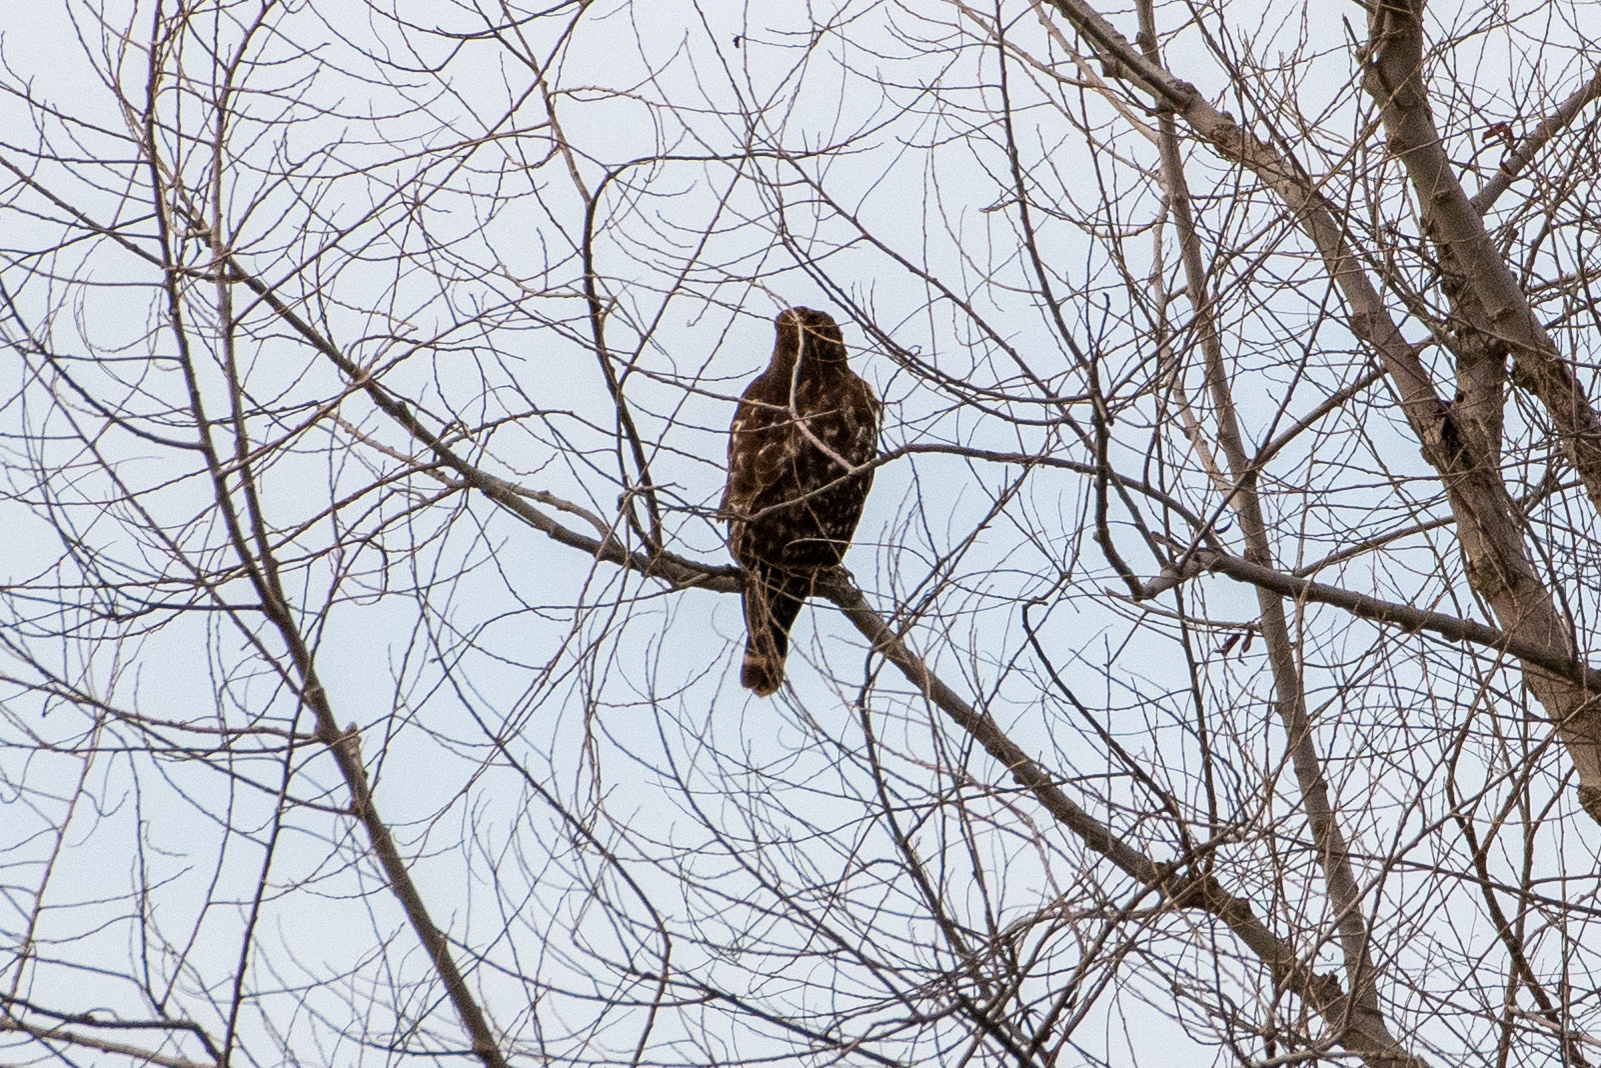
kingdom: Animalia
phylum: Chordata
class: Aves
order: Accipitriformes
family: Accipitridae
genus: Buteo
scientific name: Buteo lineatus
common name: Red-shouldered hawk
